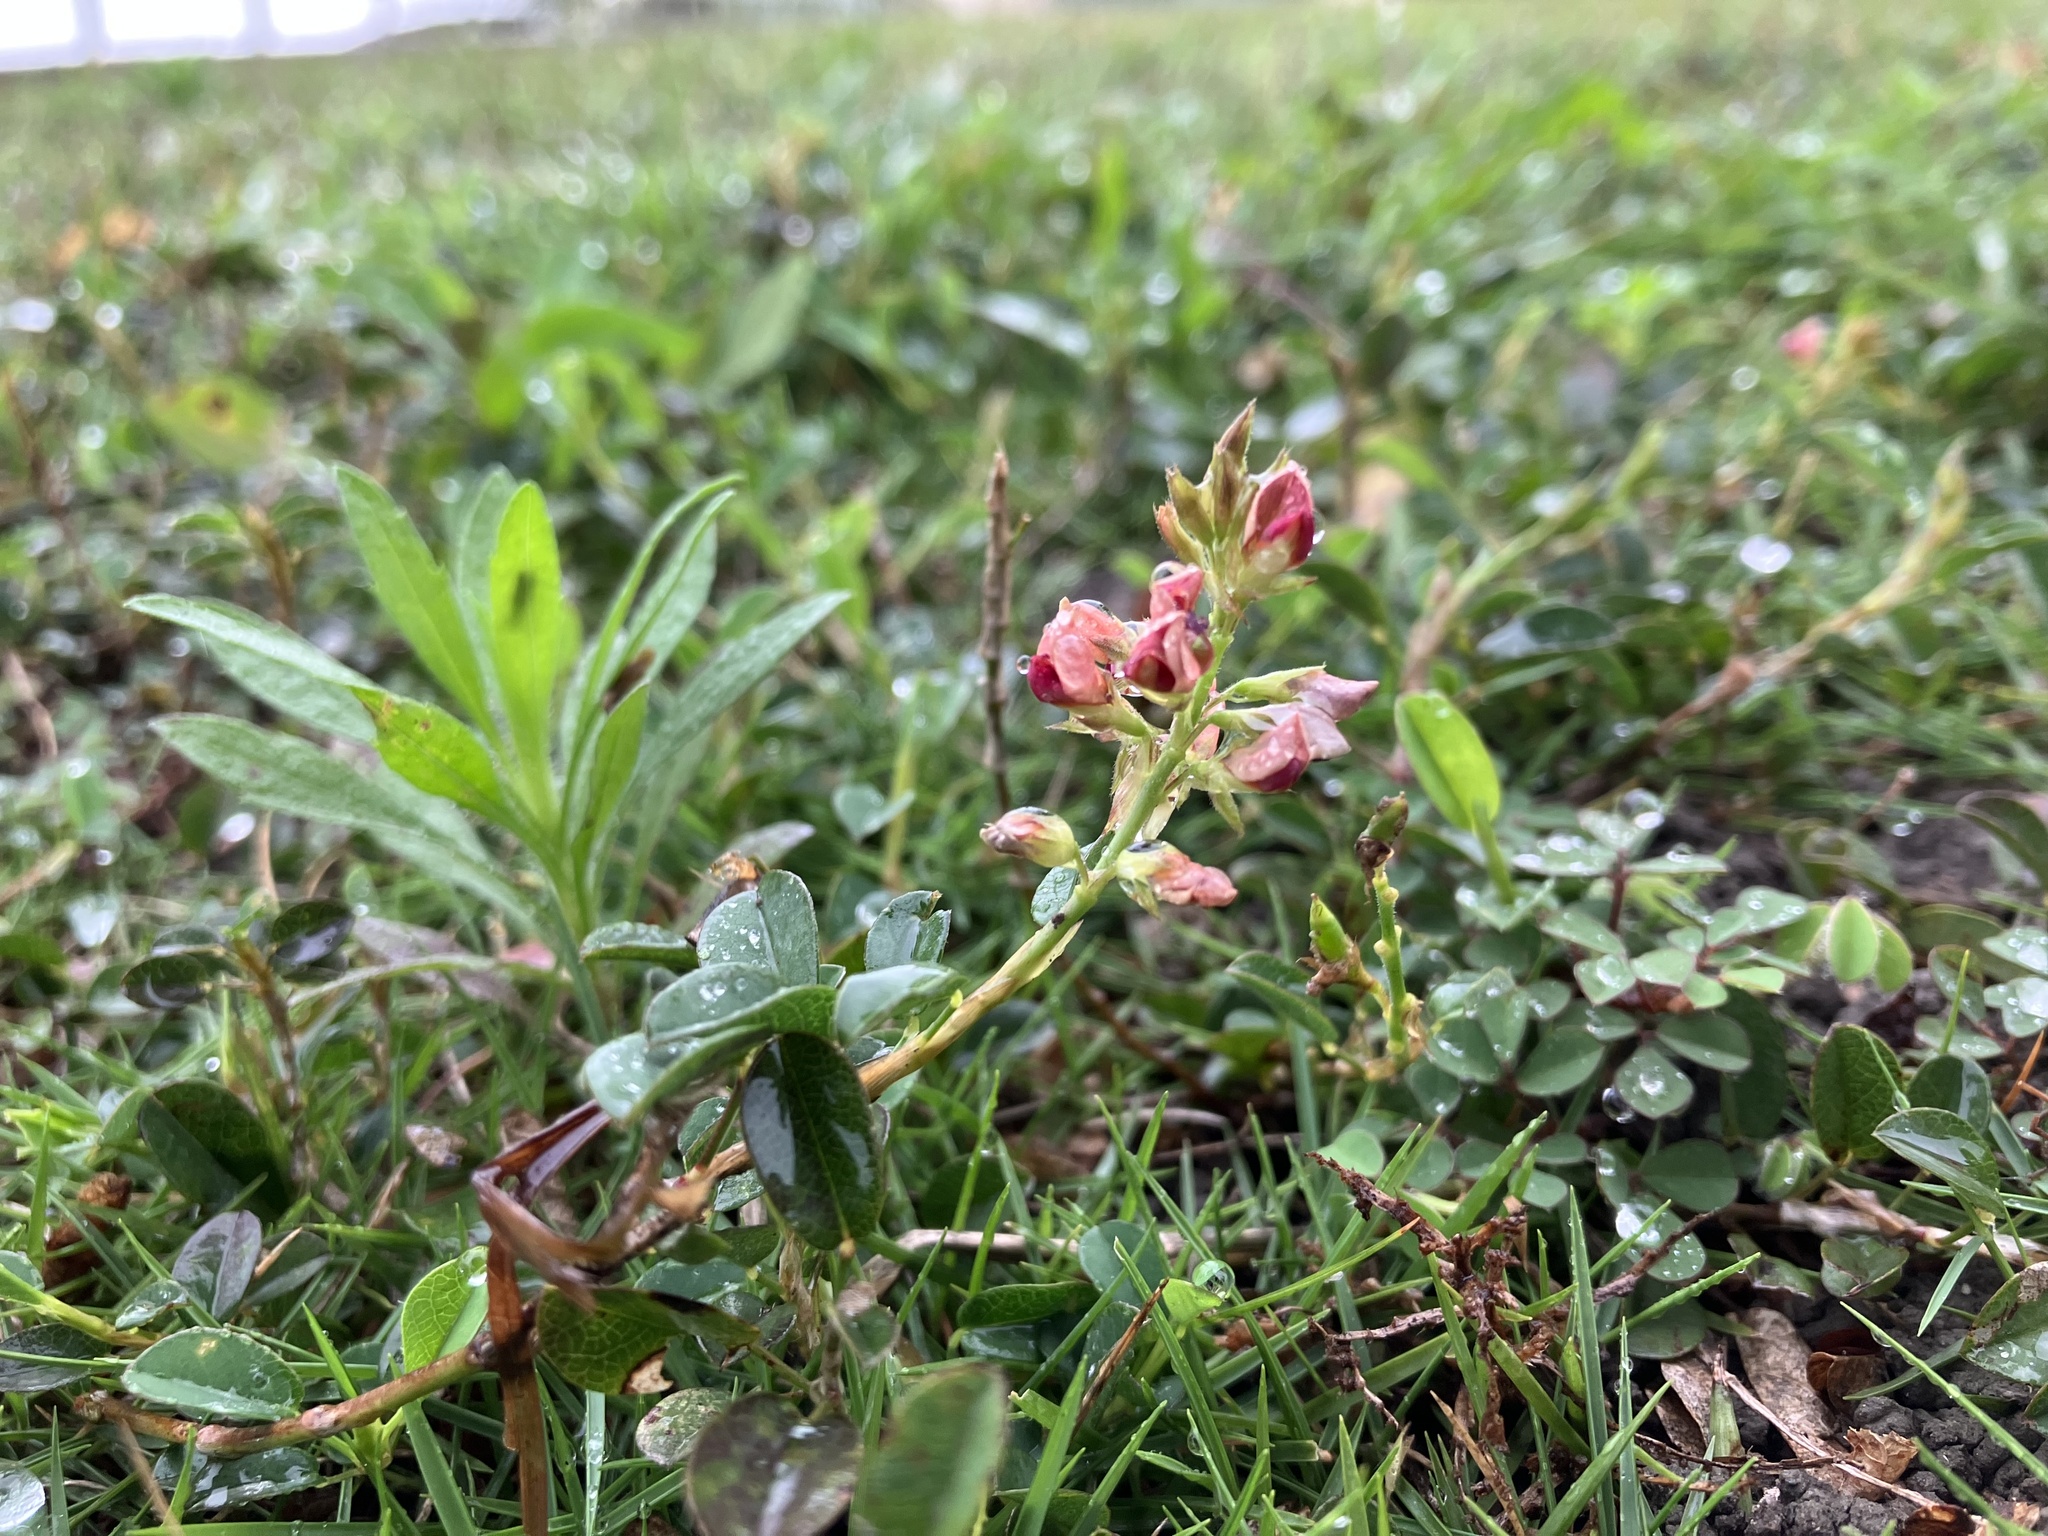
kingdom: Plantae
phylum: Tracheophyta
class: Magnoliopsida
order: Fabales
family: Fabaceae
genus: Alysicarpus
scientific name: Alysicarpus vaginalis
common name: White moneywort
